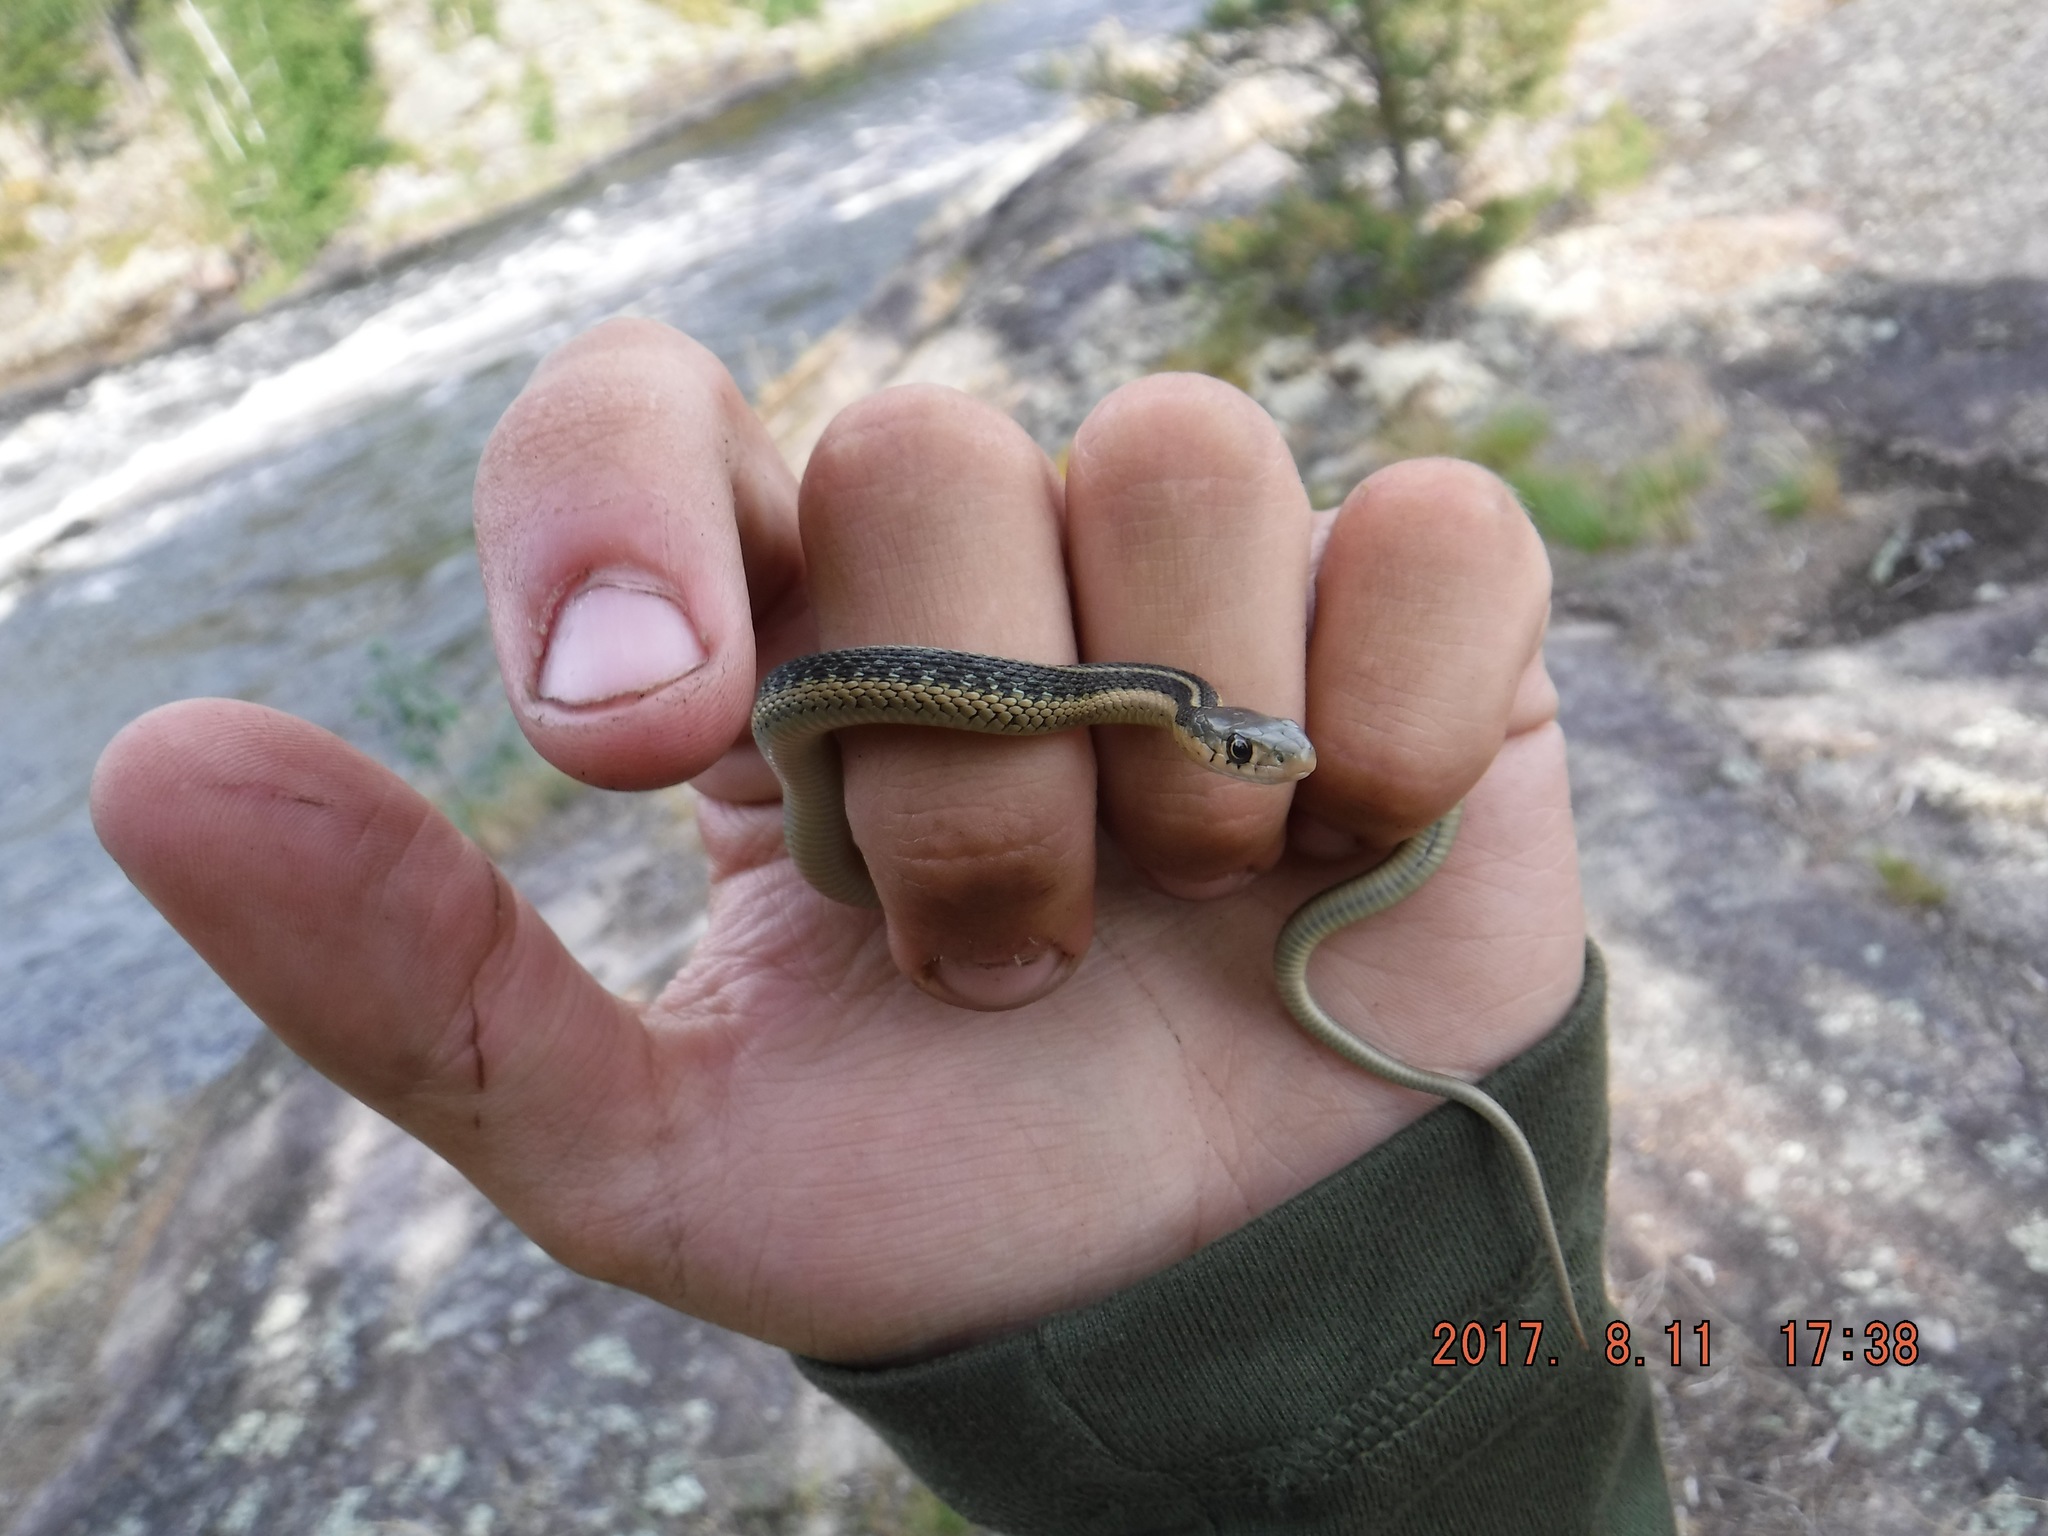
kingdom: Animalia
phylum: Chordata
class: Squamata
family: Colubridae
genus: Thamnophis
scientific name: Thamnophis sirtalis
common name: Common garter snake
